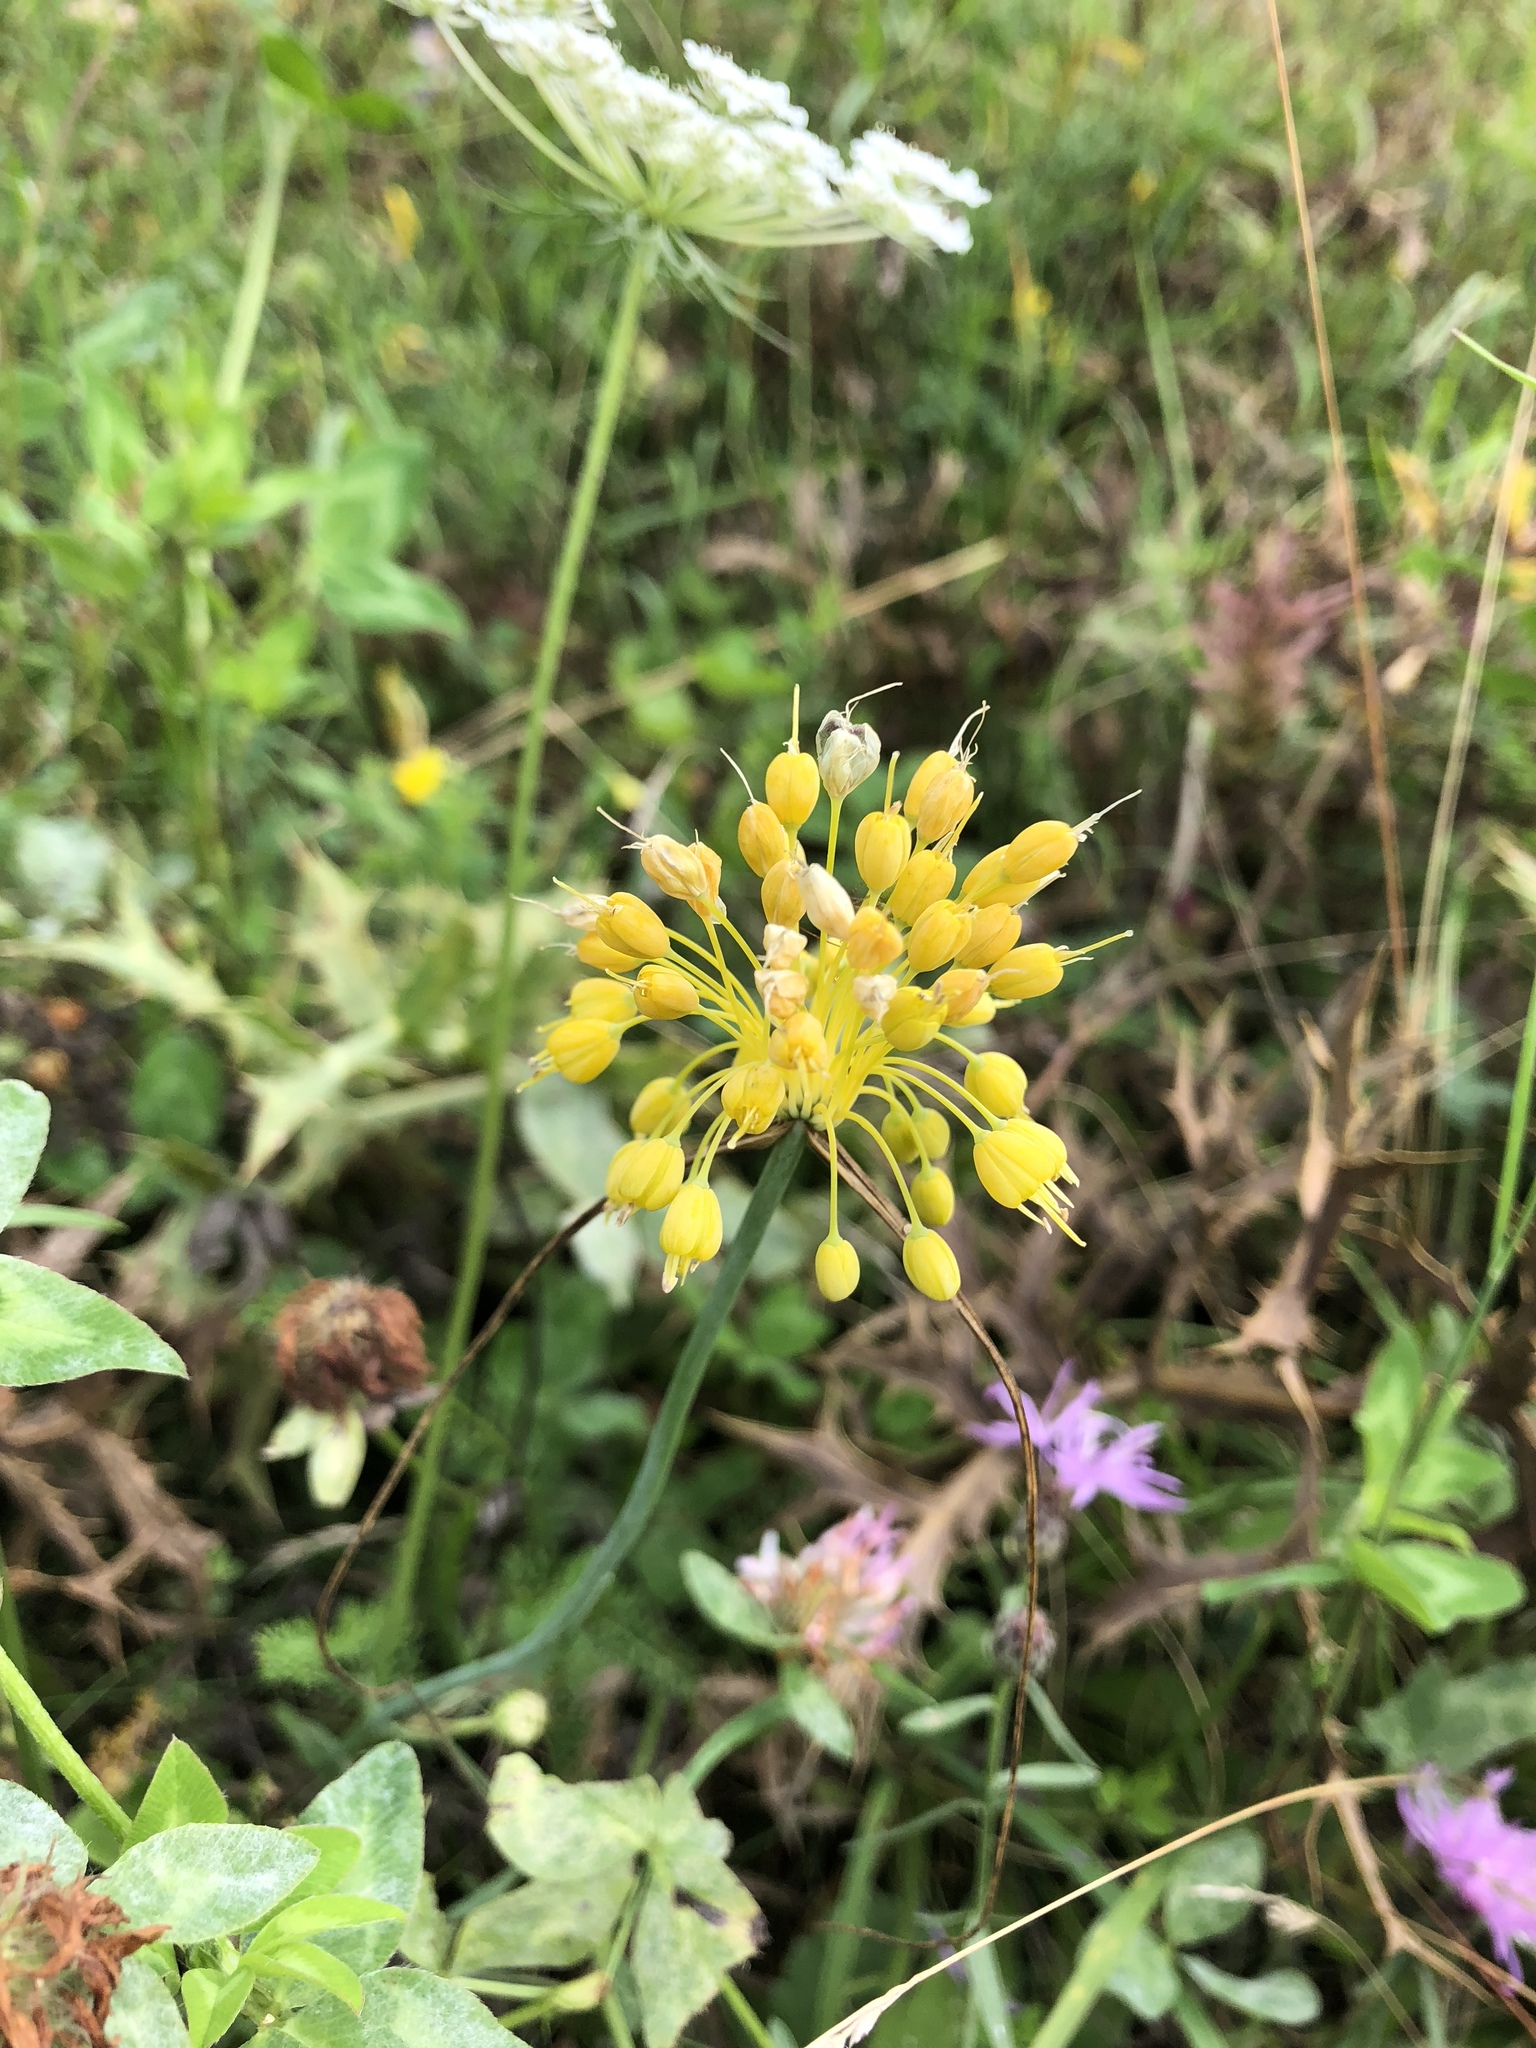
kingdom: Plantae
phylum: Tracheophyta
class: Liliopsida
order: Asparagales
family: Amaryllidaceae
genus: Allium
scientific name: Allium flavum
